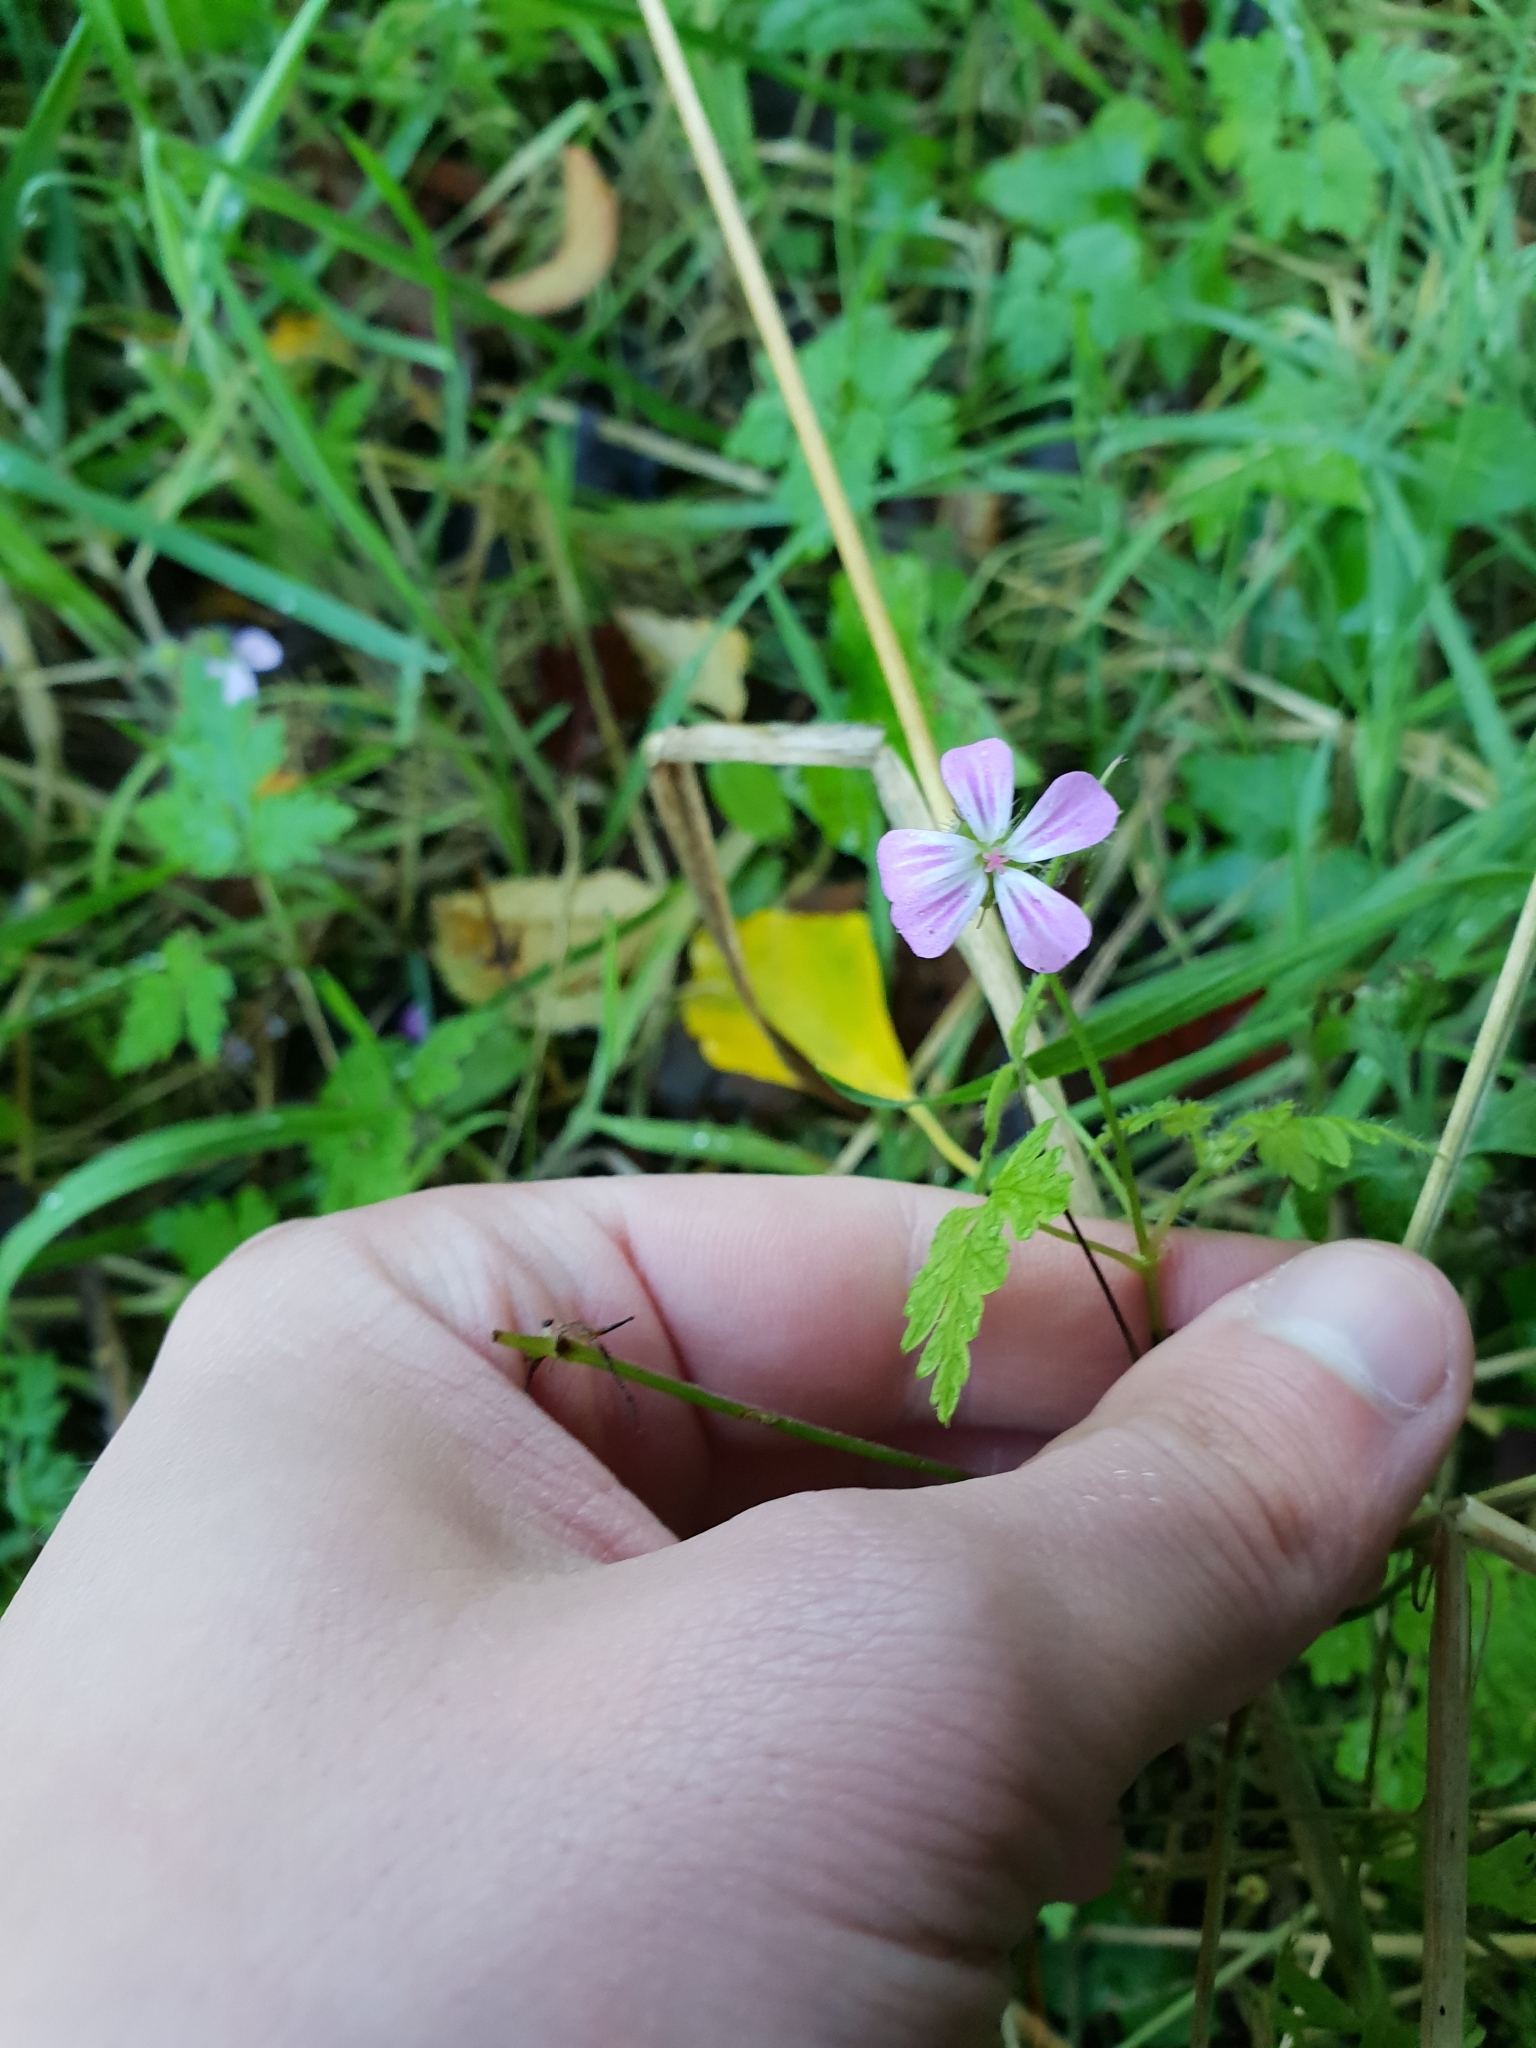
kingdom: Plantae
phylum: Tracheophyta
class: Magnoliopsida
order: Geraniales
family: Geraniaceae
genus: Geranium
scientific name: Geranium robertianum
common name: Herb-robert
